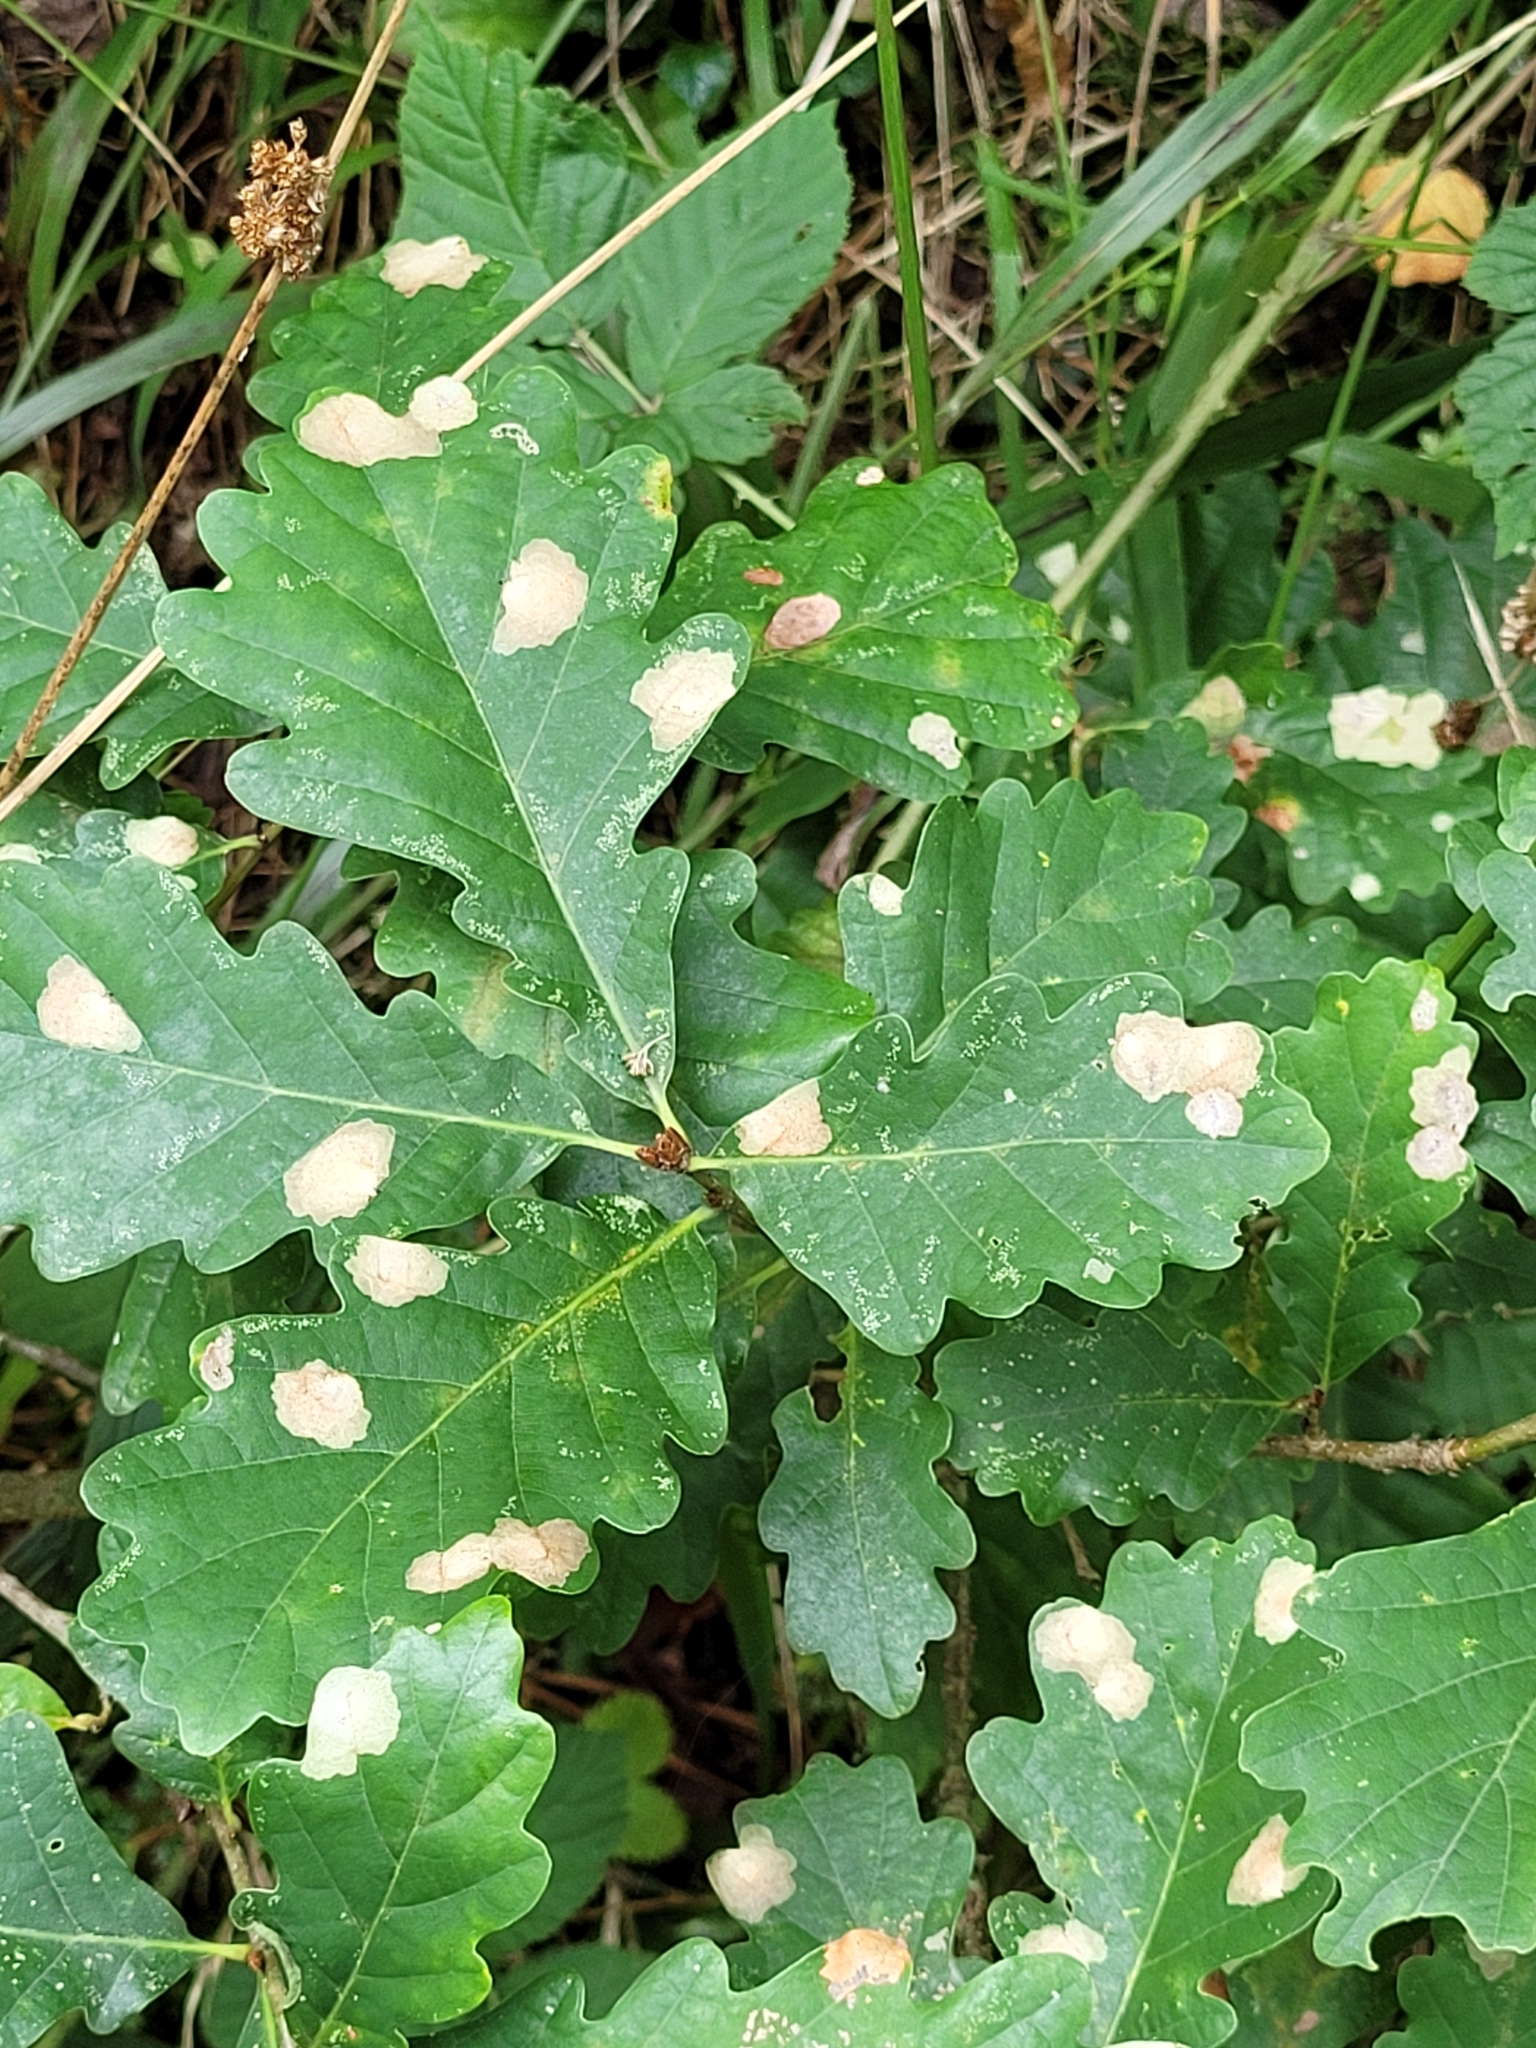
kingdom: Animalia
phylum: Arthropoda
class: Insecta
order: Lepidoptera
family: Tischeriidae
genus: Tischeria
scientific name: Tischeria ekebladella
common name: Oak carl
